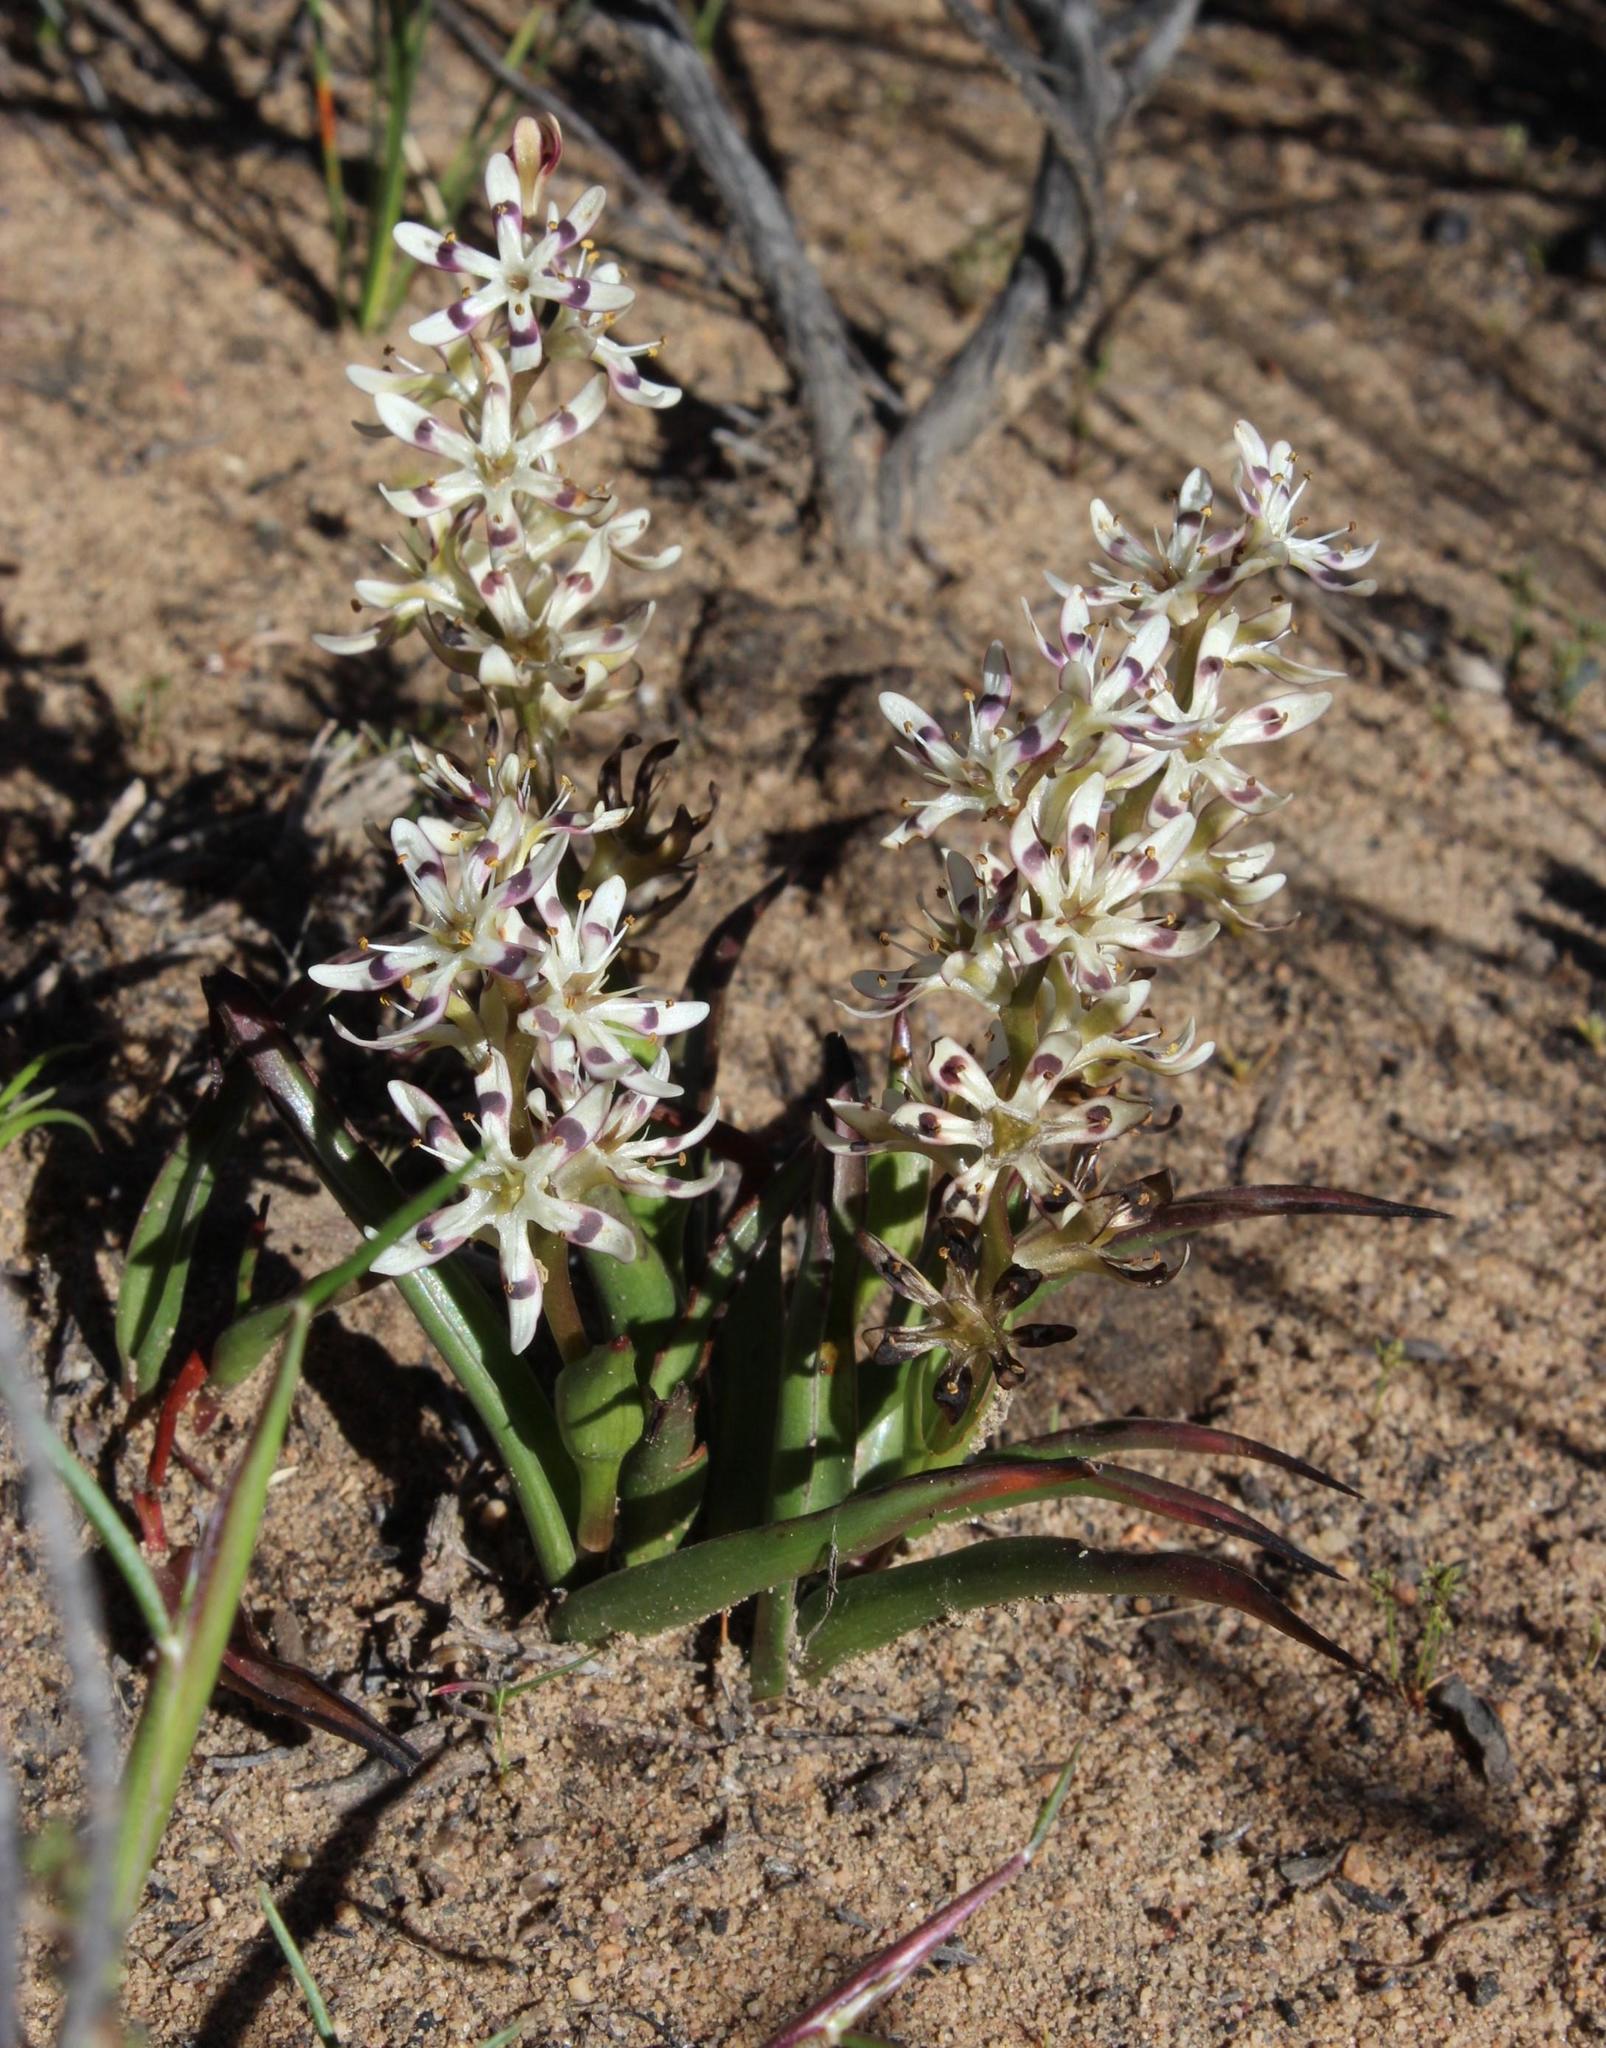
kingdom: Plantae
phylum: Tracheophyta
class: Liliopsida
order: Liliales
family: Colchicaceae
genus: Wurmbea
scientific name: Wurmbea variabilis
